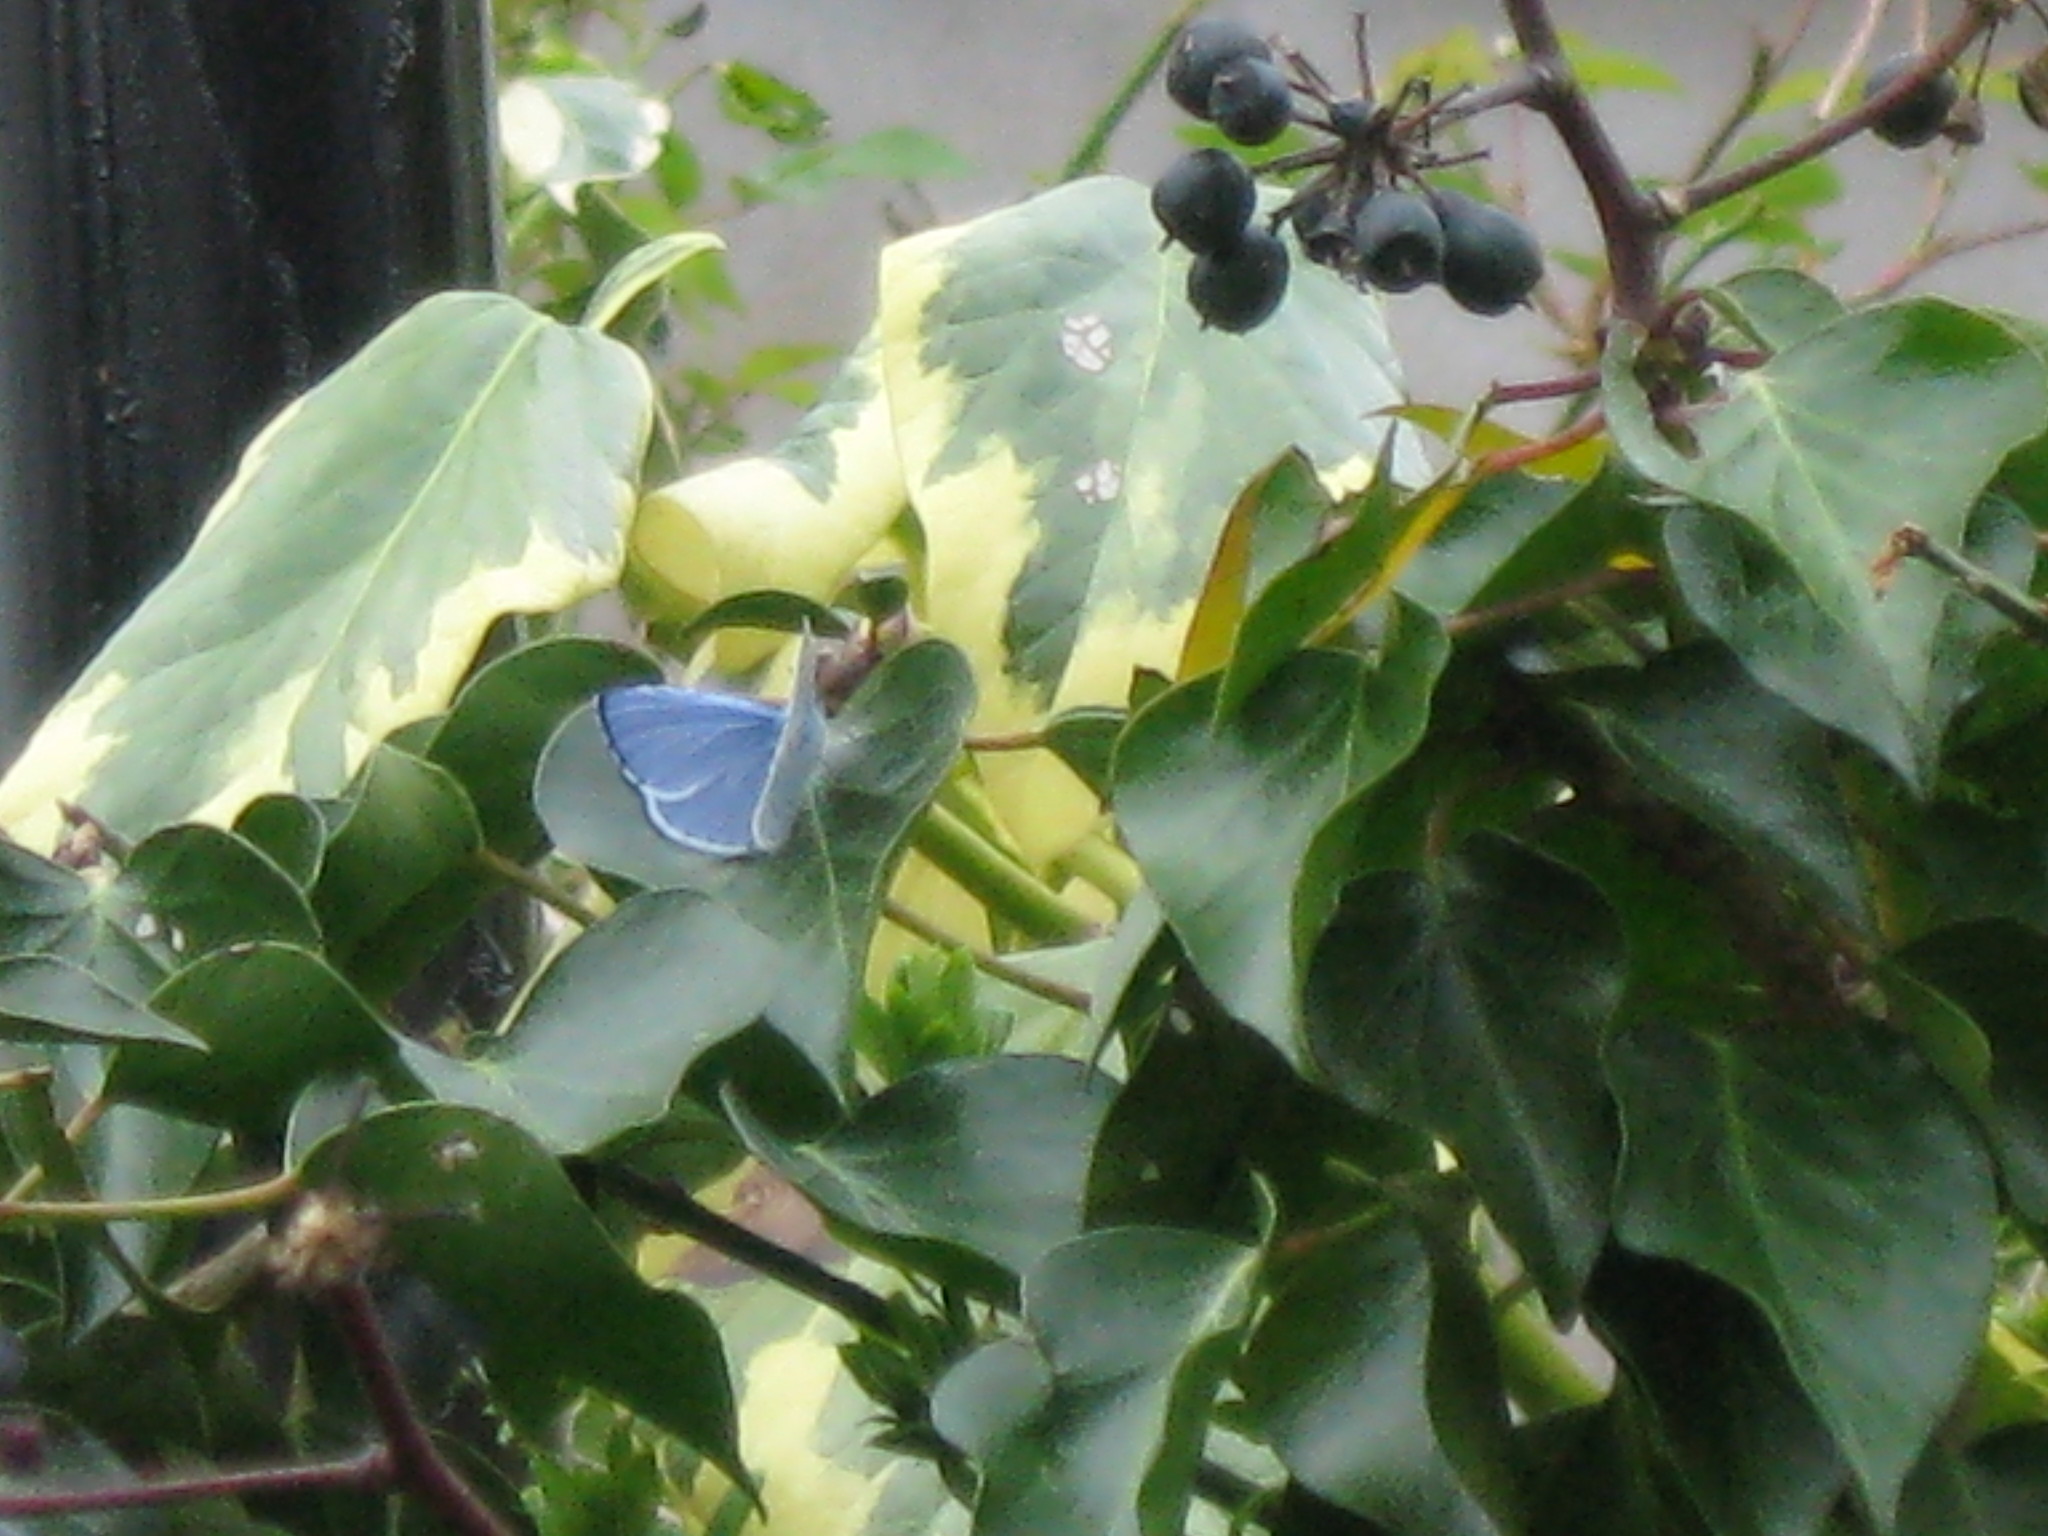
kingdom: Animalia
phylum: Arthropoda
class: Insecta
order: Lepidoptera
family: Lycaenidae
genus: Celastrina
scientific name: Celastrina argiolus
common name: Holly blue
